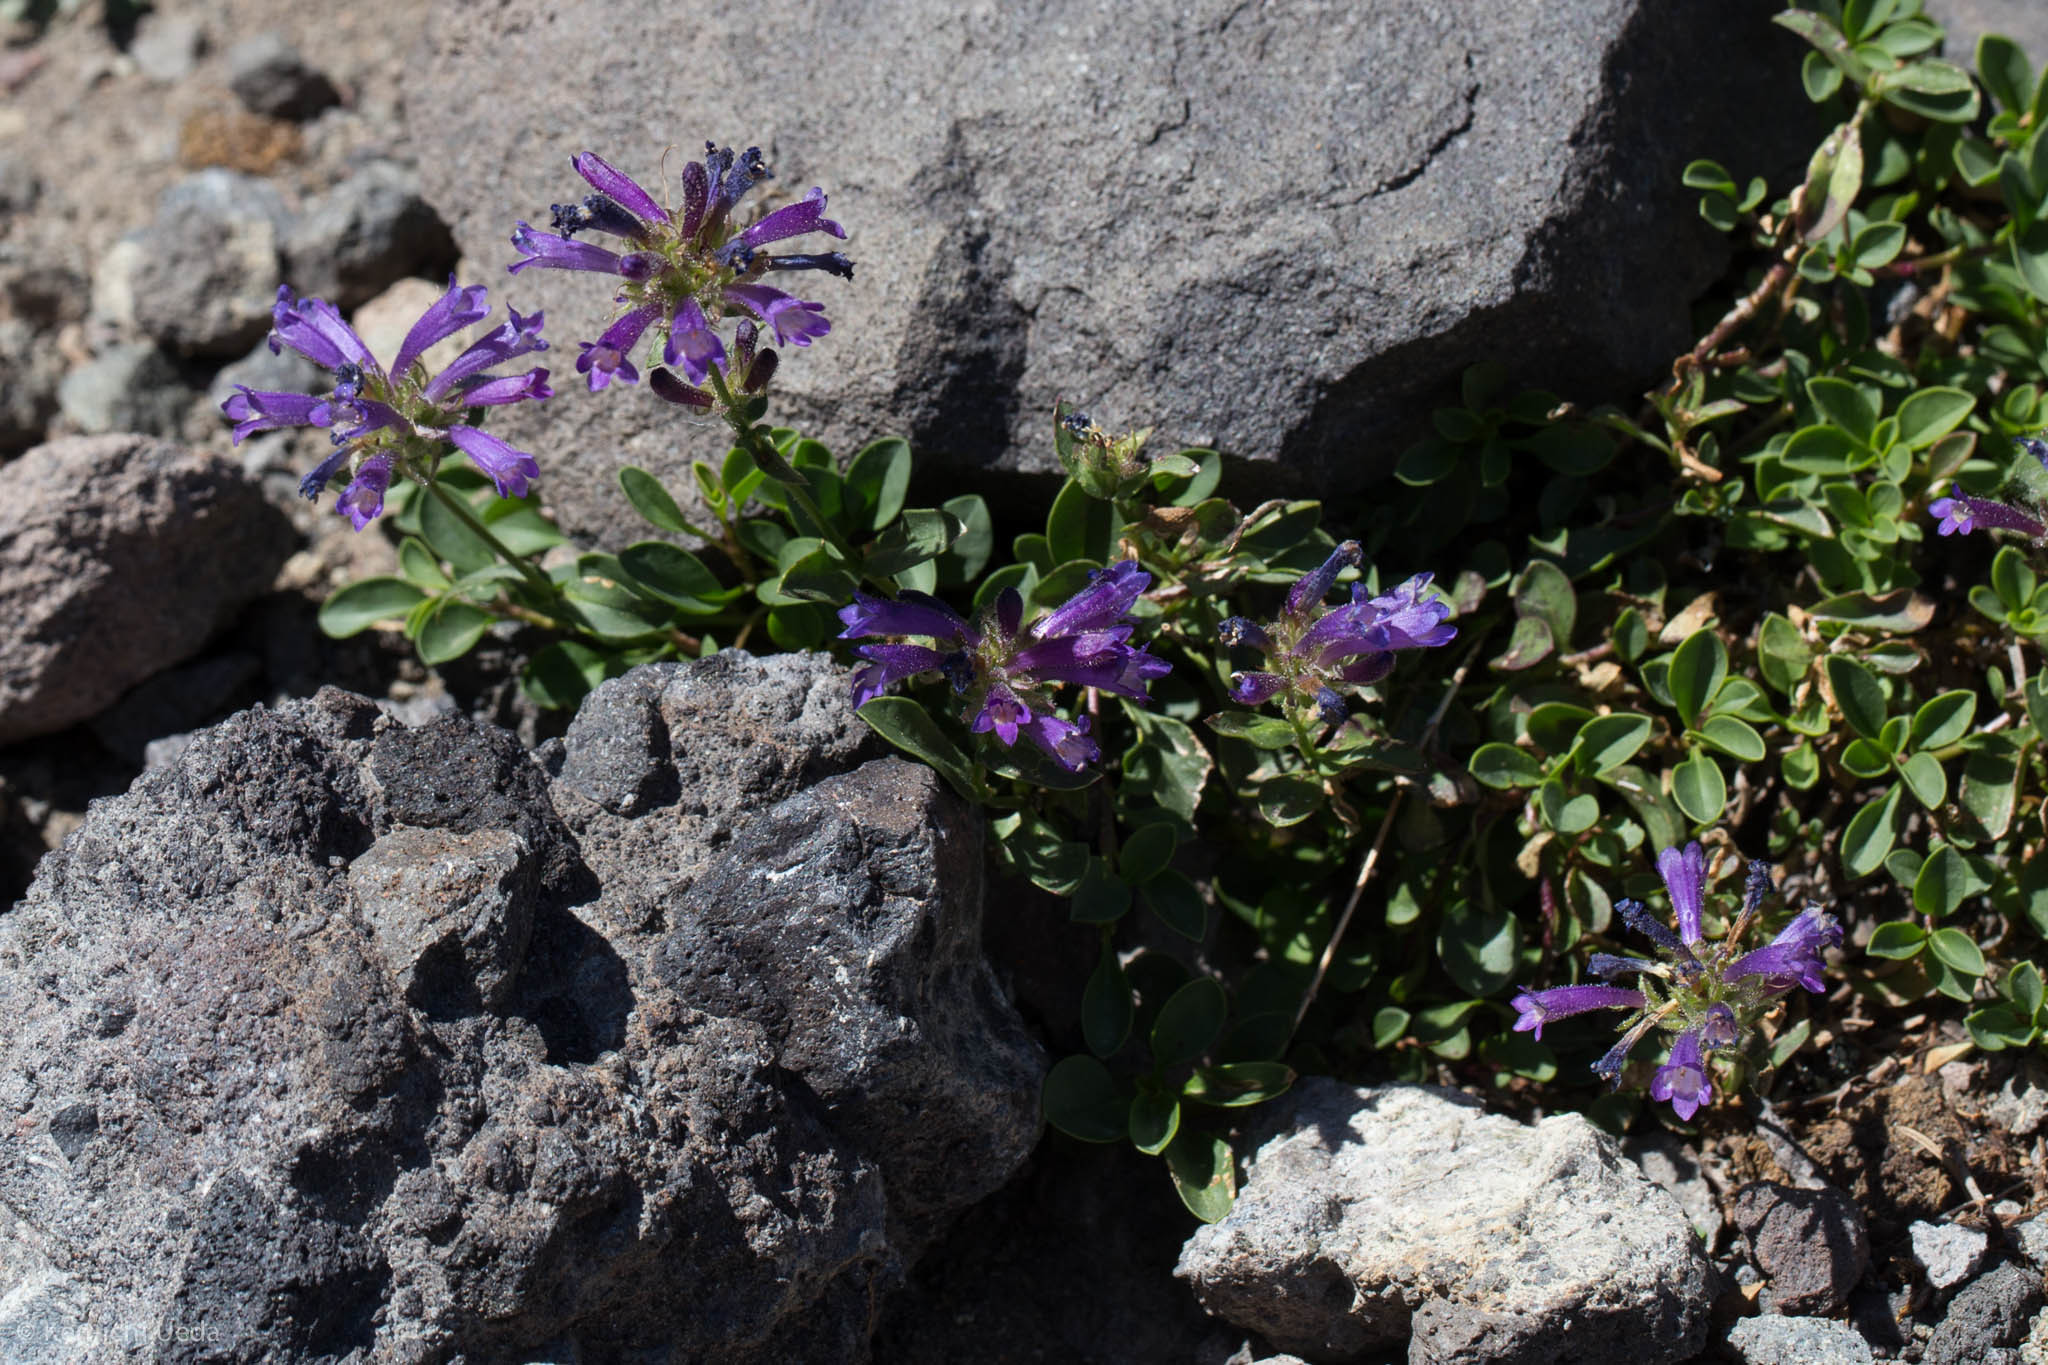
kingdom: Plantae
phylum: Tracheophyta
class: Magnoliopsida
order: Lamiales
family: Plantaginaceae
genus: Penstemon
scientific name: Penstemon procerus
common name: Small-flower penstemon
